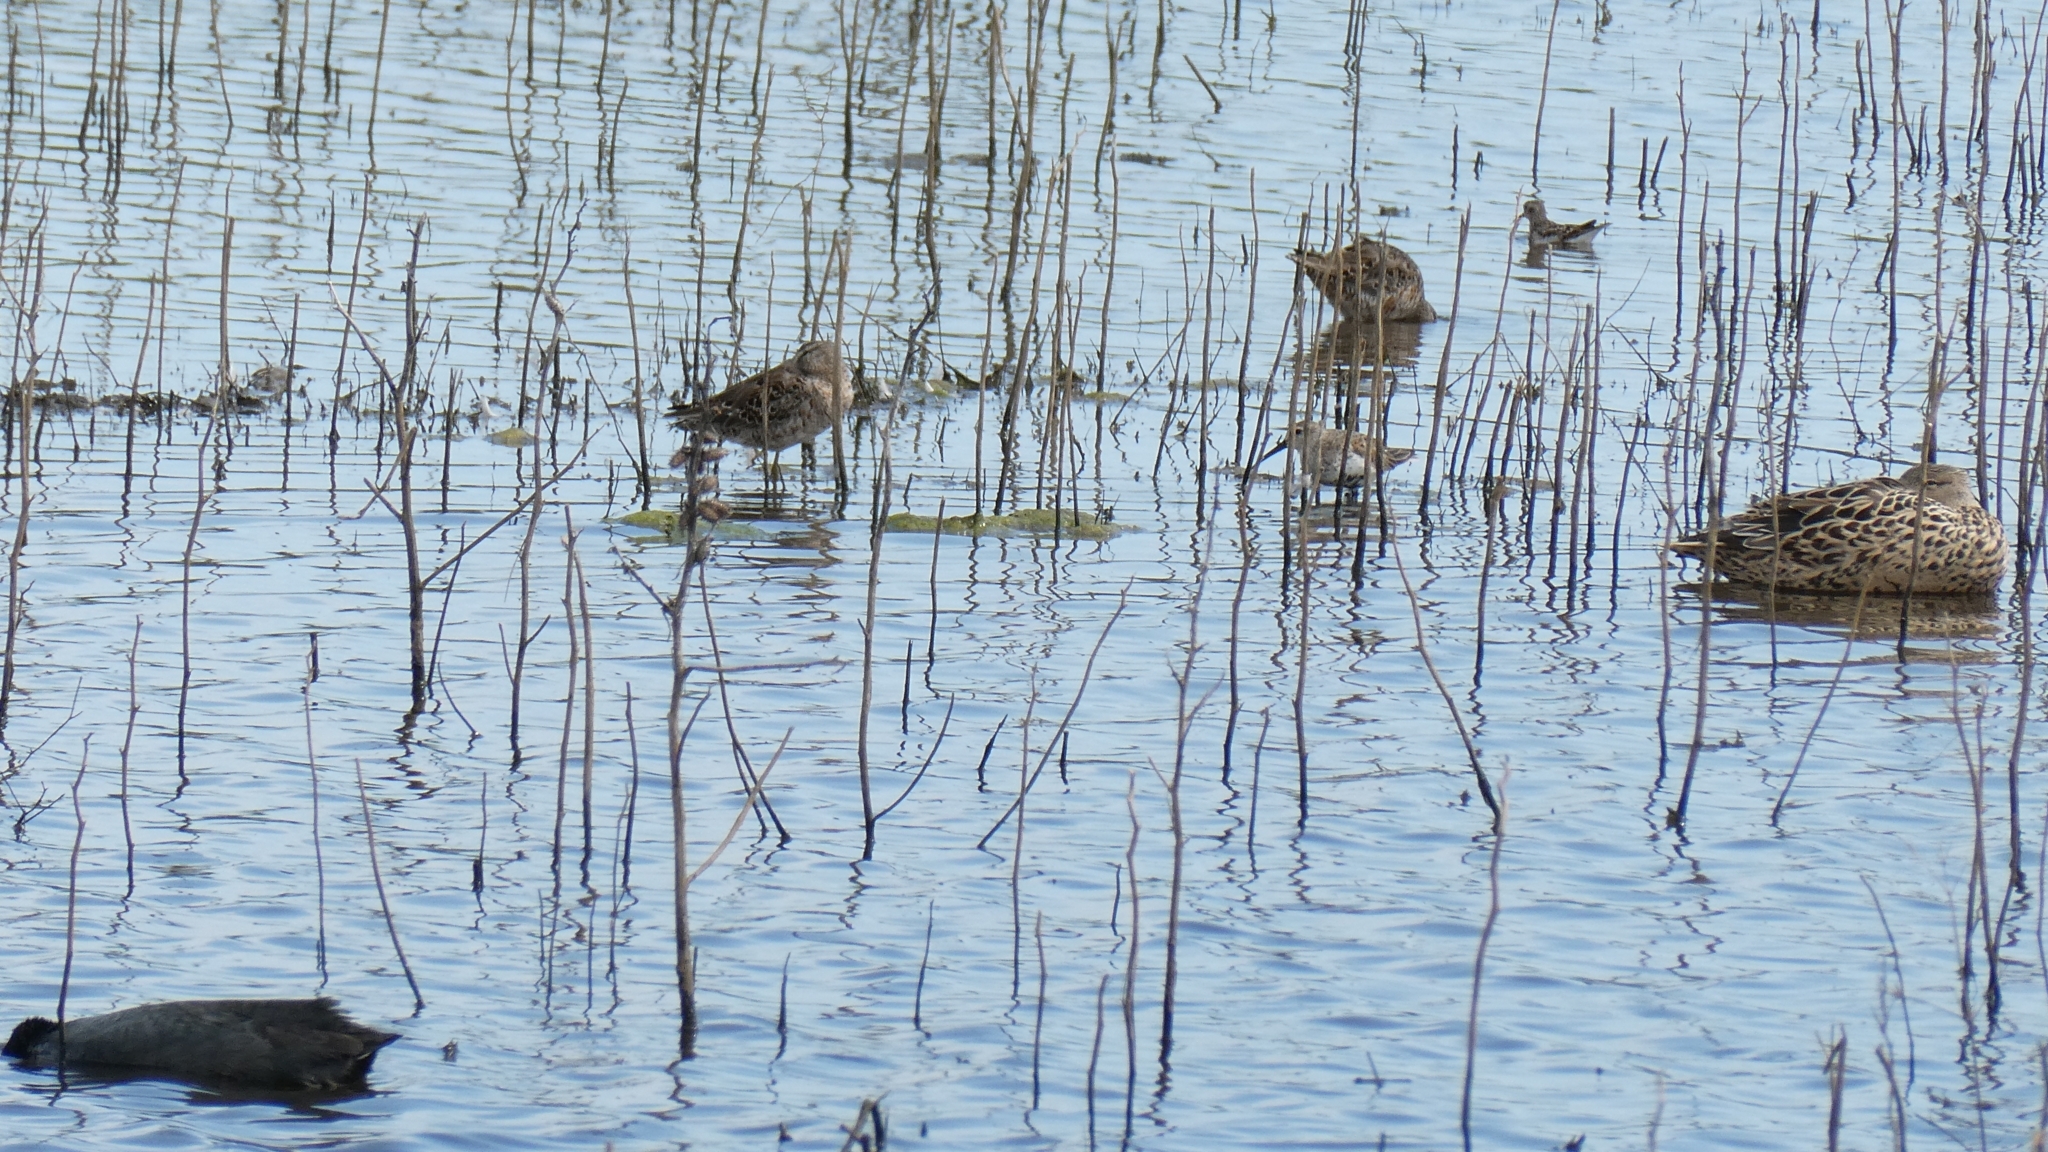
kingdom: Animalia
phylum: Chordata
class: Aves
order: Charadriiformes
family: Scolopacidae
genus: Calidris
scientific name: Calidris alpina
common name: Dunlin
